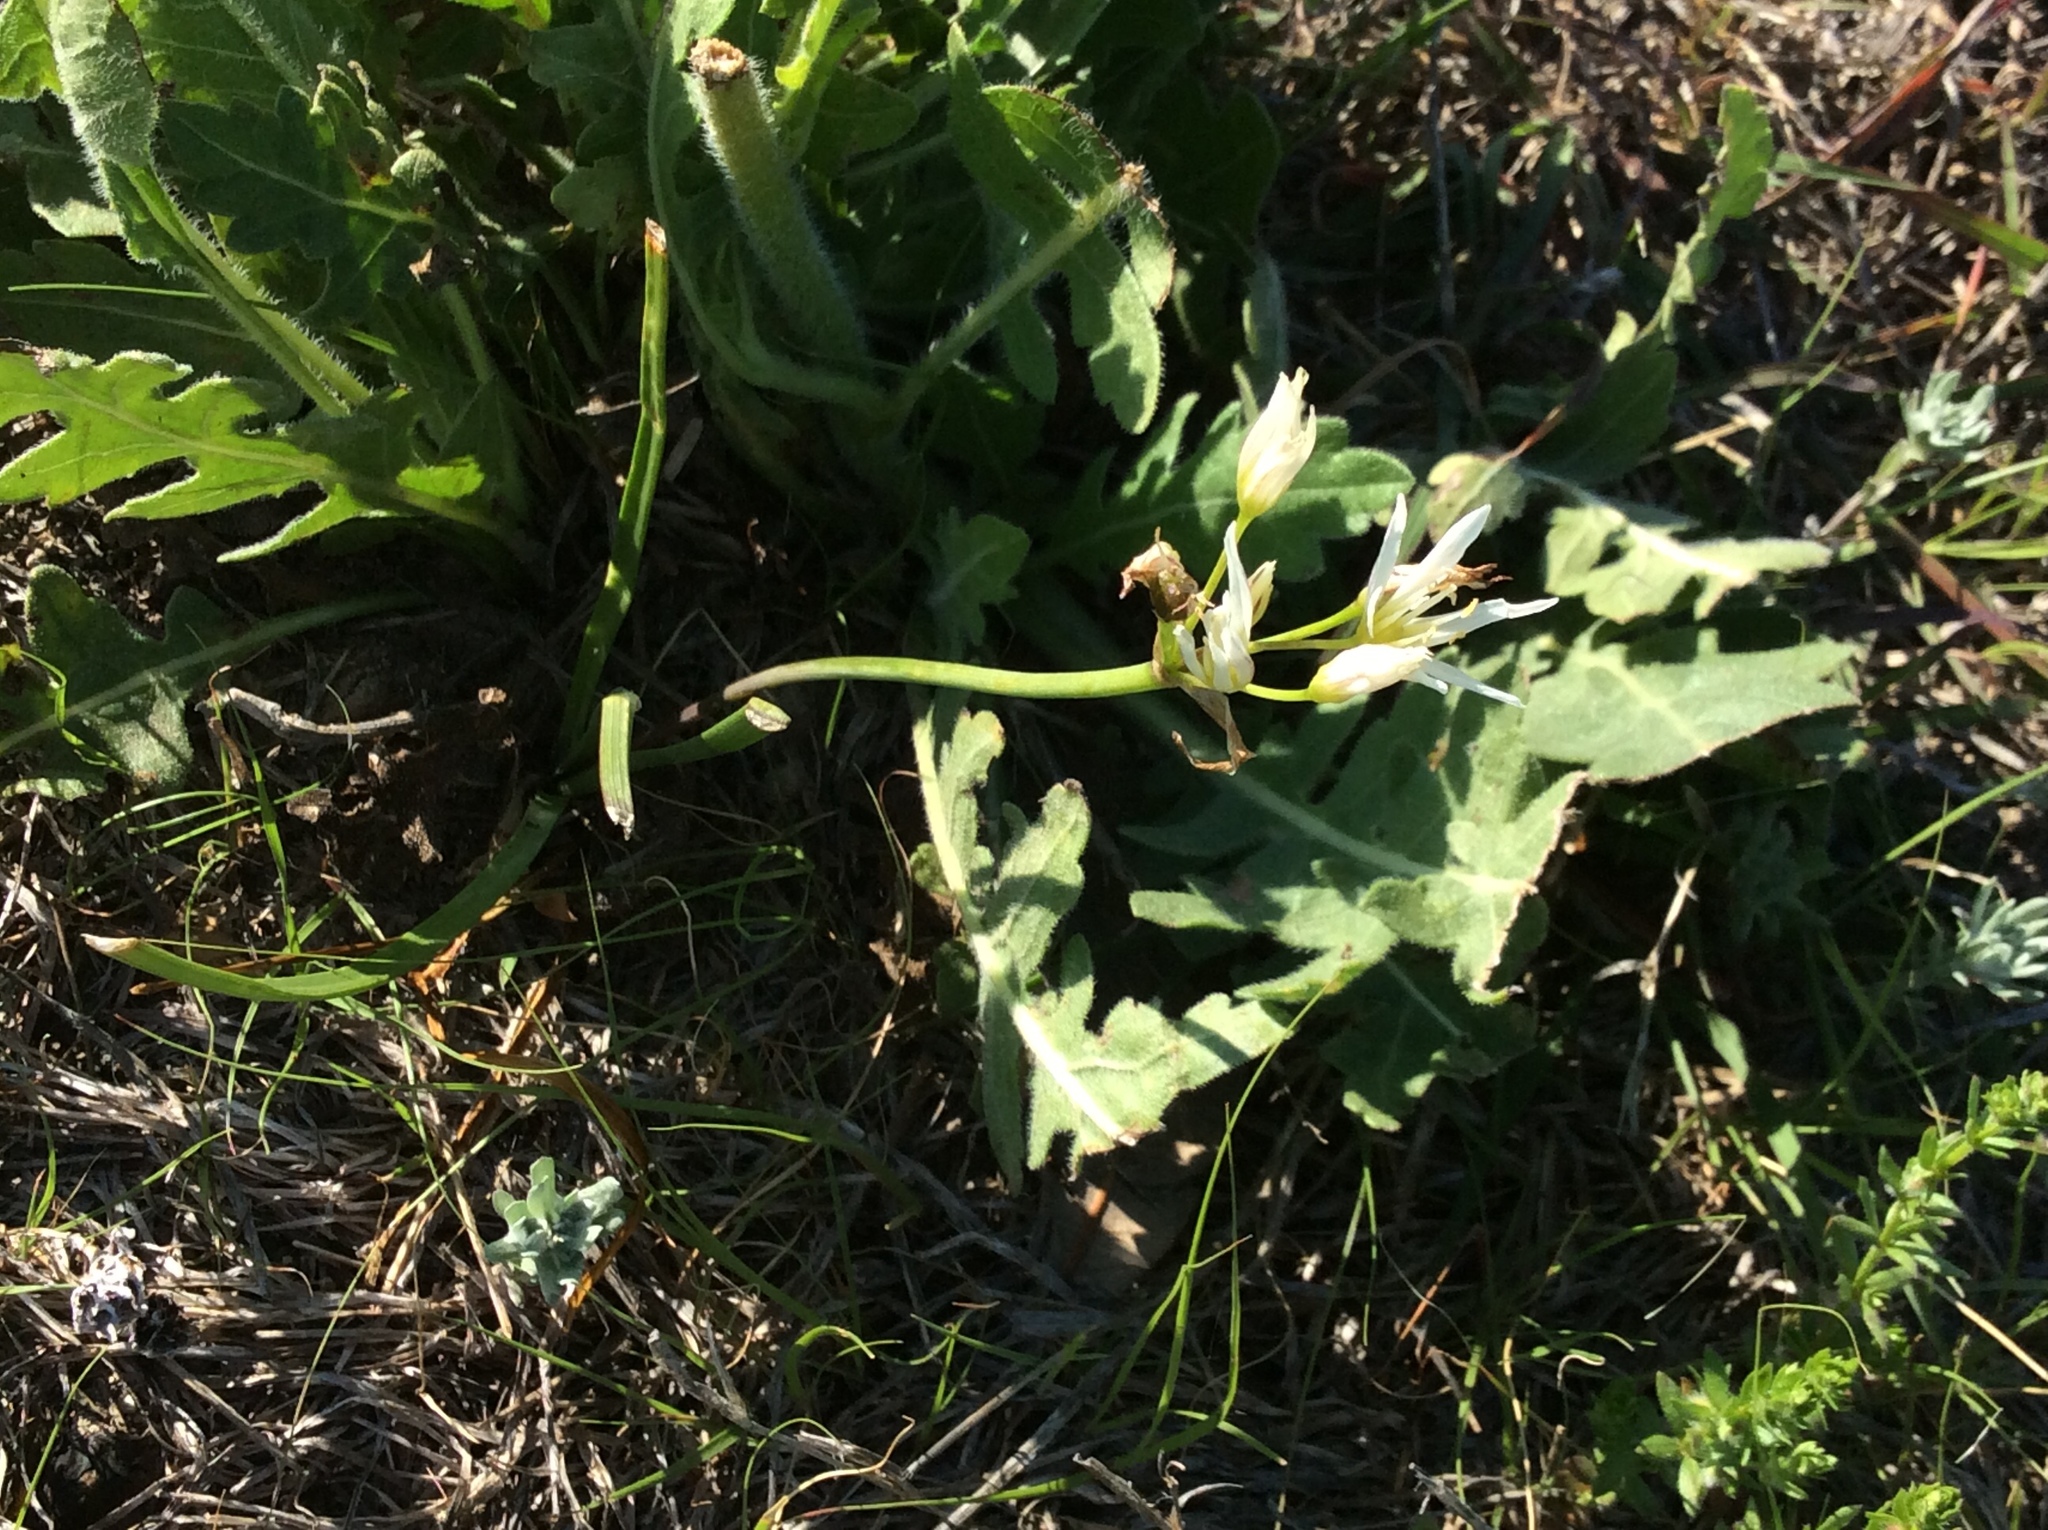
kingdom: Plantae
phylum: Tracheophyta
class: Liliopsida
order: Asparagales
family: Amaryllidaceae
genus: Nothoscordum
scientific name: Nothoscordum bivalve
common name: Crow-poison
